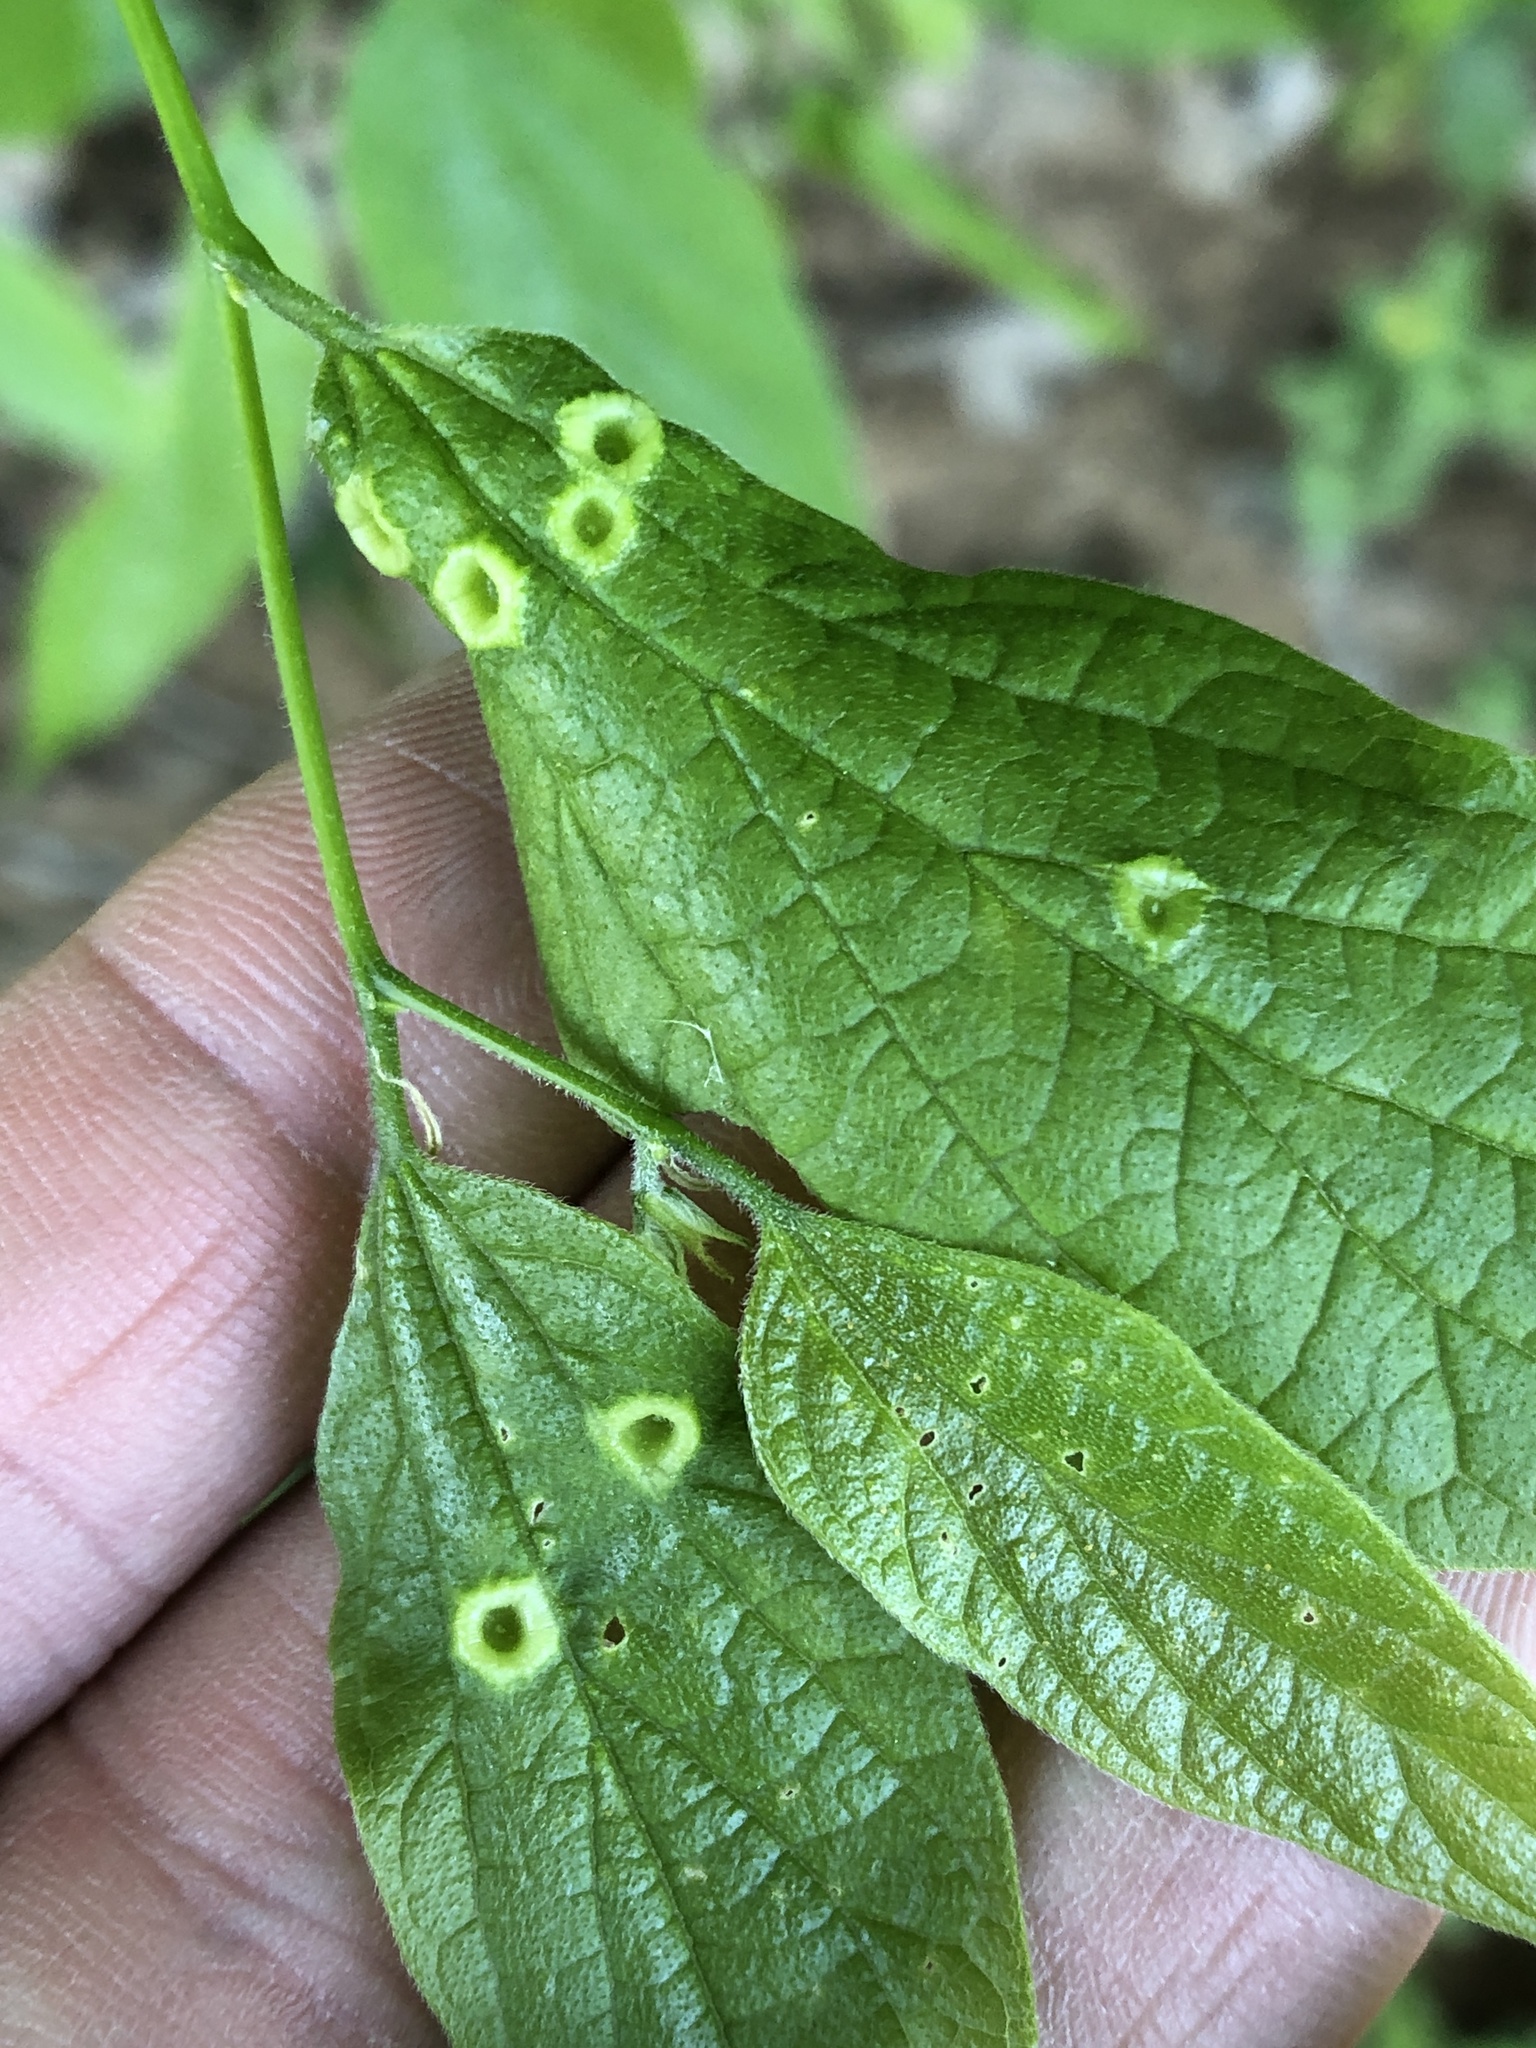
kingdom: Animalia
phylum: Arthropoda
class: Insecta
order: Hemiptera
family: Aphalaridae
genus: Pachypsylla
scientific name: Pachypsylla celtidismamma
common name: Hackberry nipplegall psyllid
